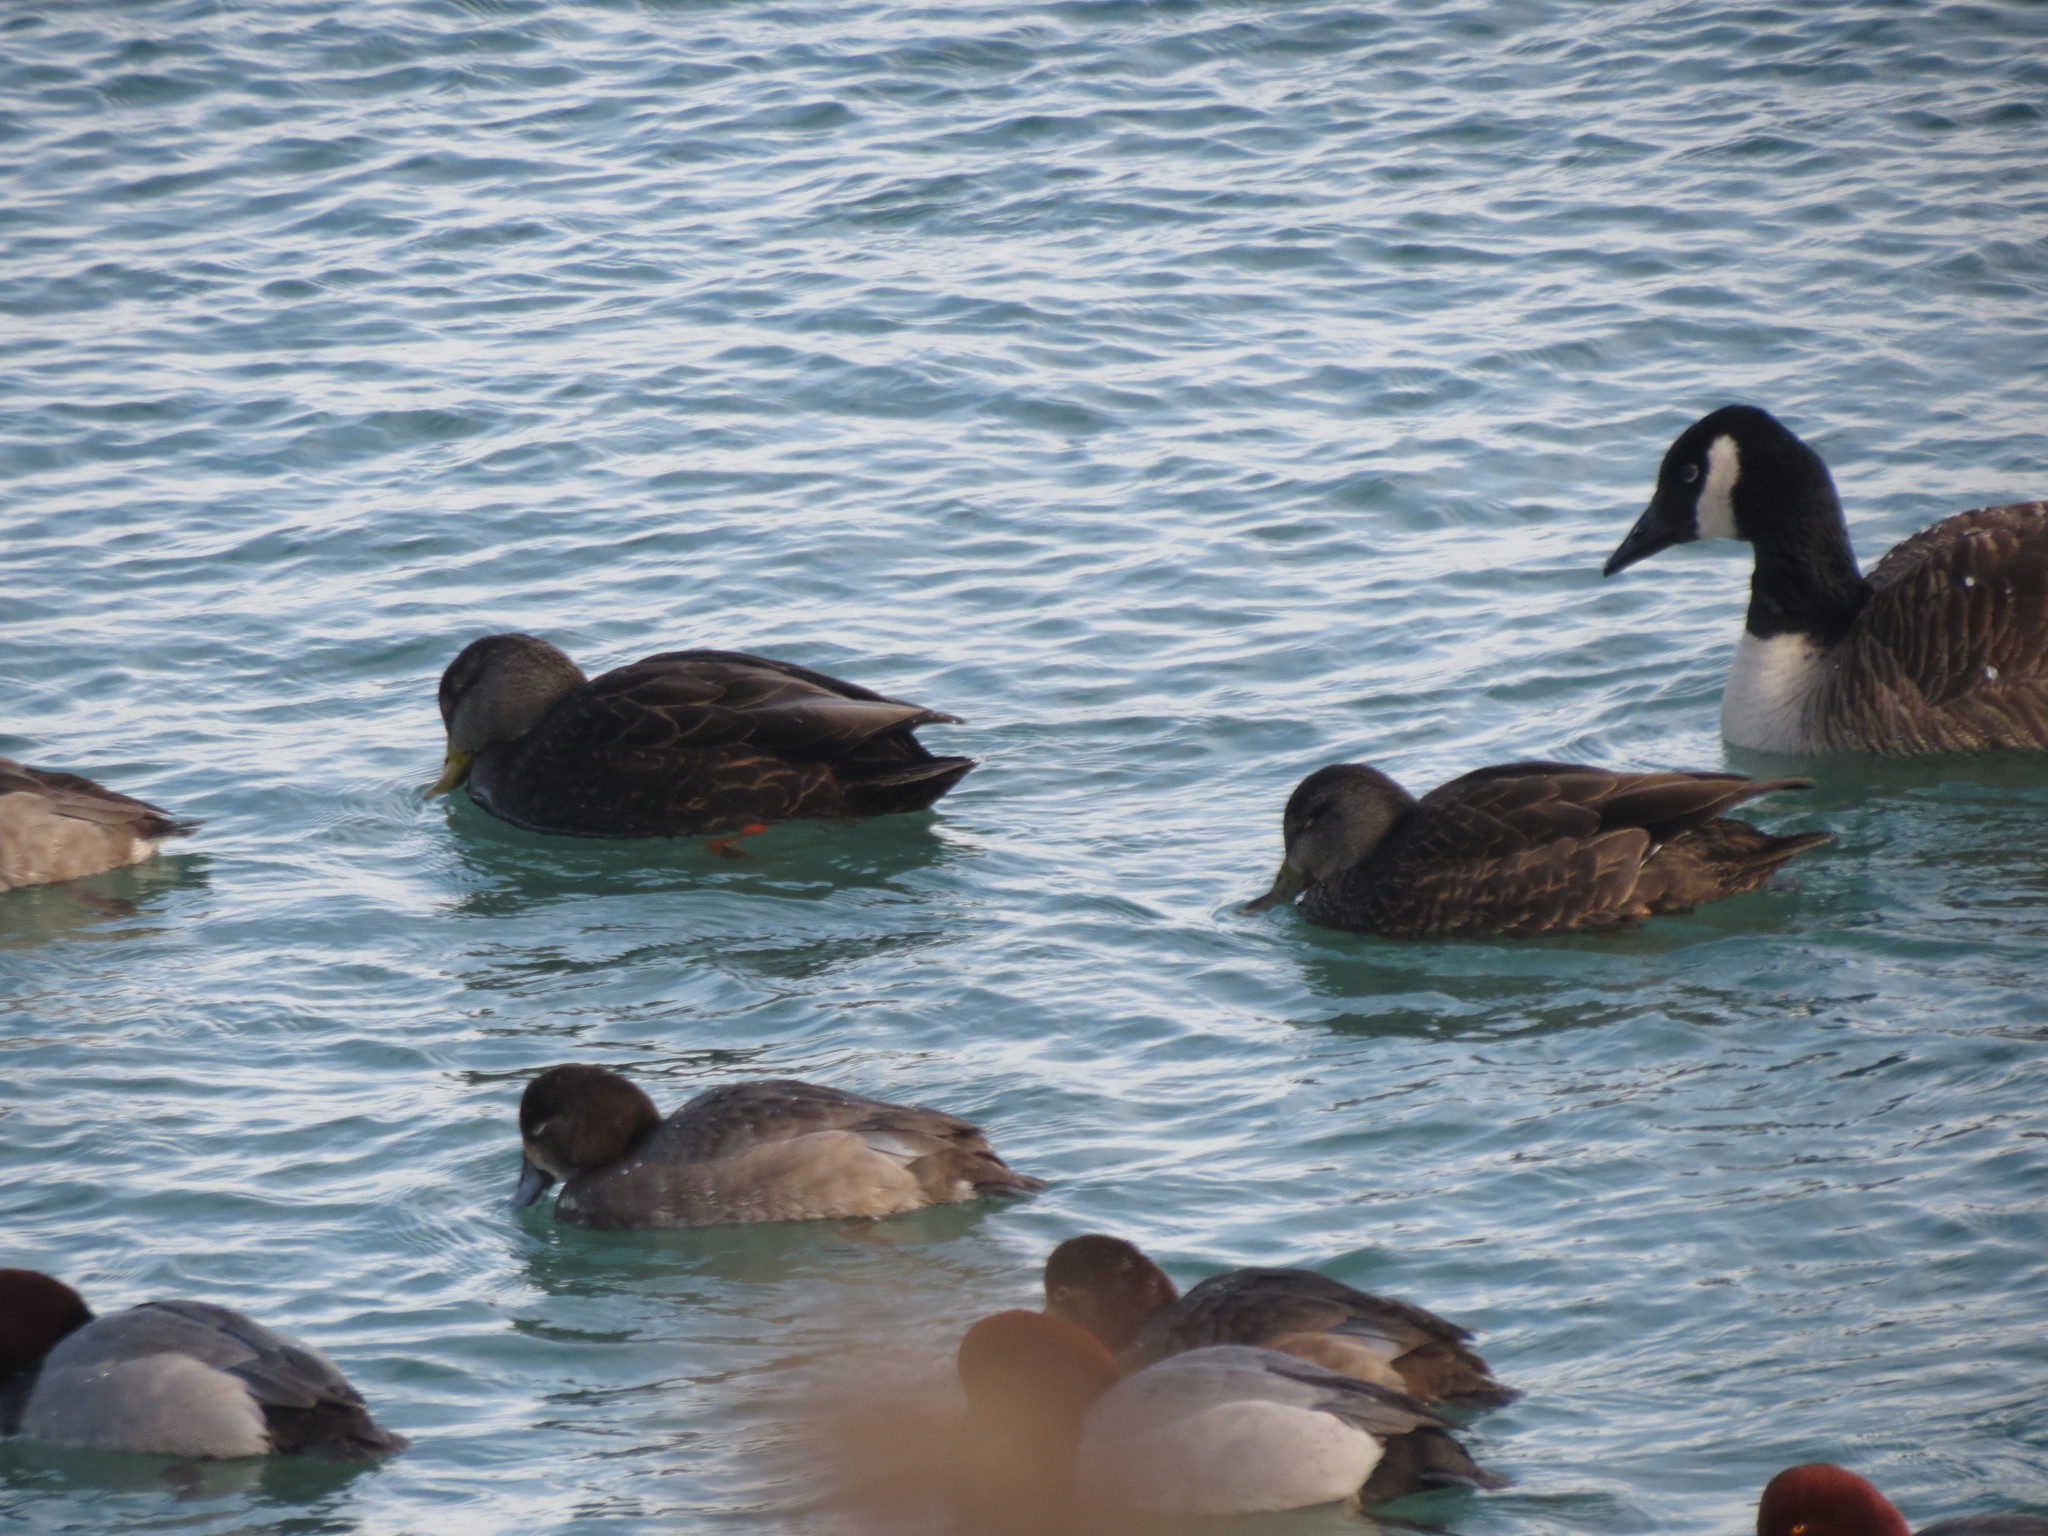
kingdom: Animalia
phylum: Chordata
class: Aves
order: Anseriformes
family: Anatidae
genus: Anas
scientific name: Anas rubripes
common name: American black duck
